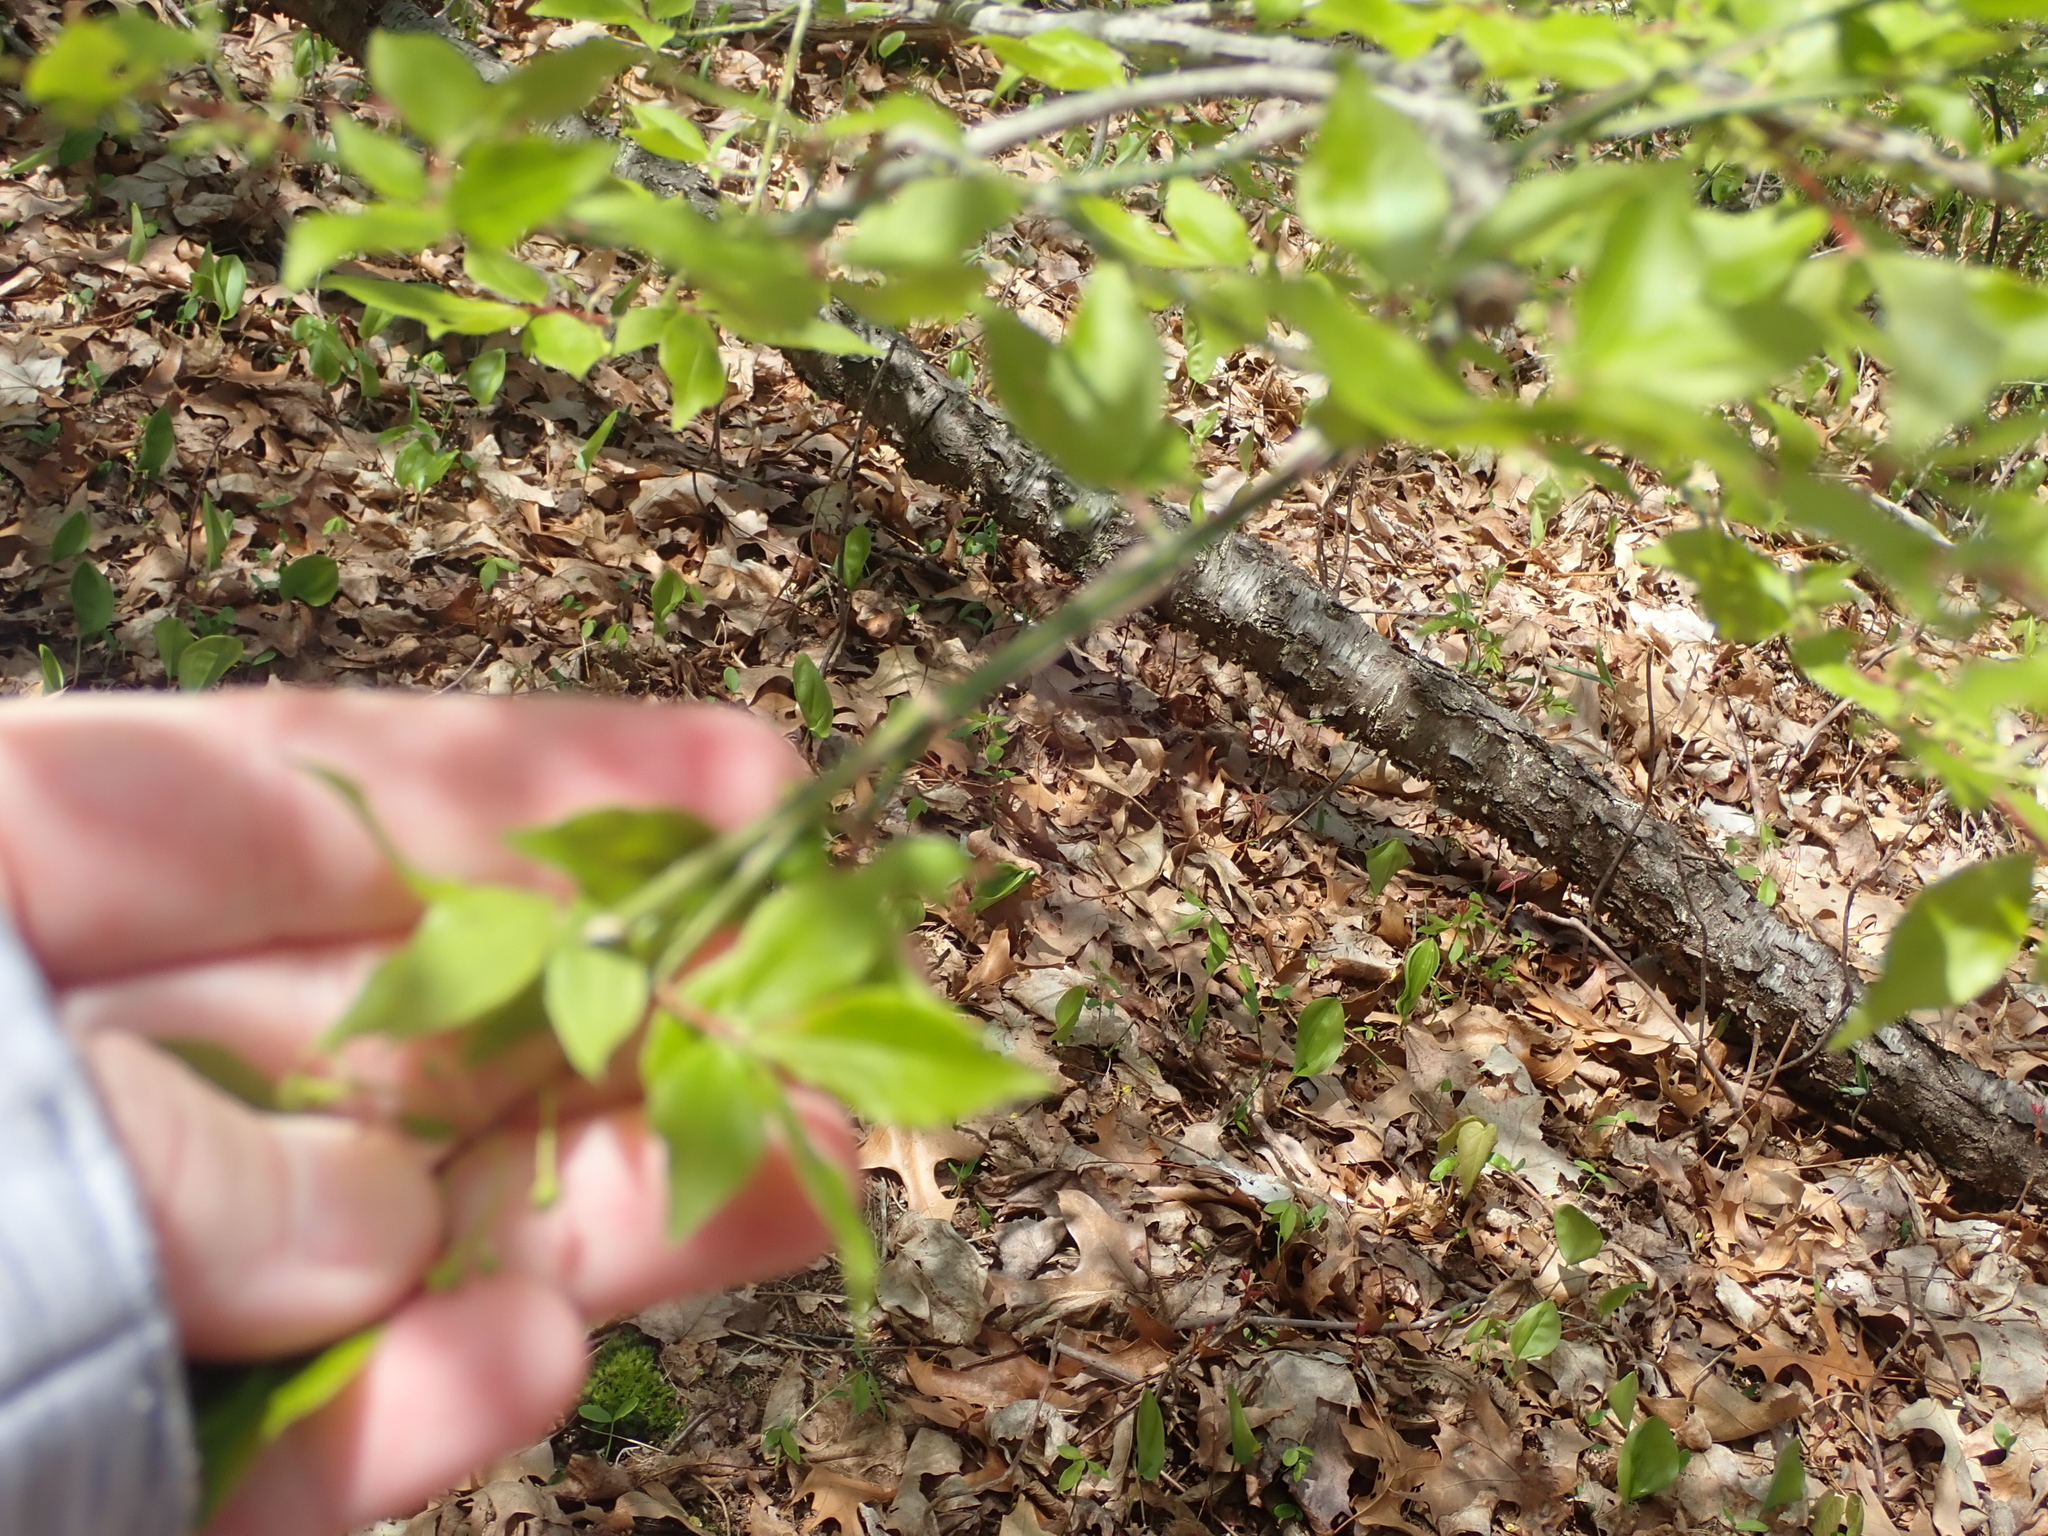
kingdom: Plantae
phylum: Tracheophyta
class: Magnoliopsida
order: Celastrales
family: Celastraceae
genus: Euonymus
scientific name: Euonymus alatus
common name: Winged euonymus
